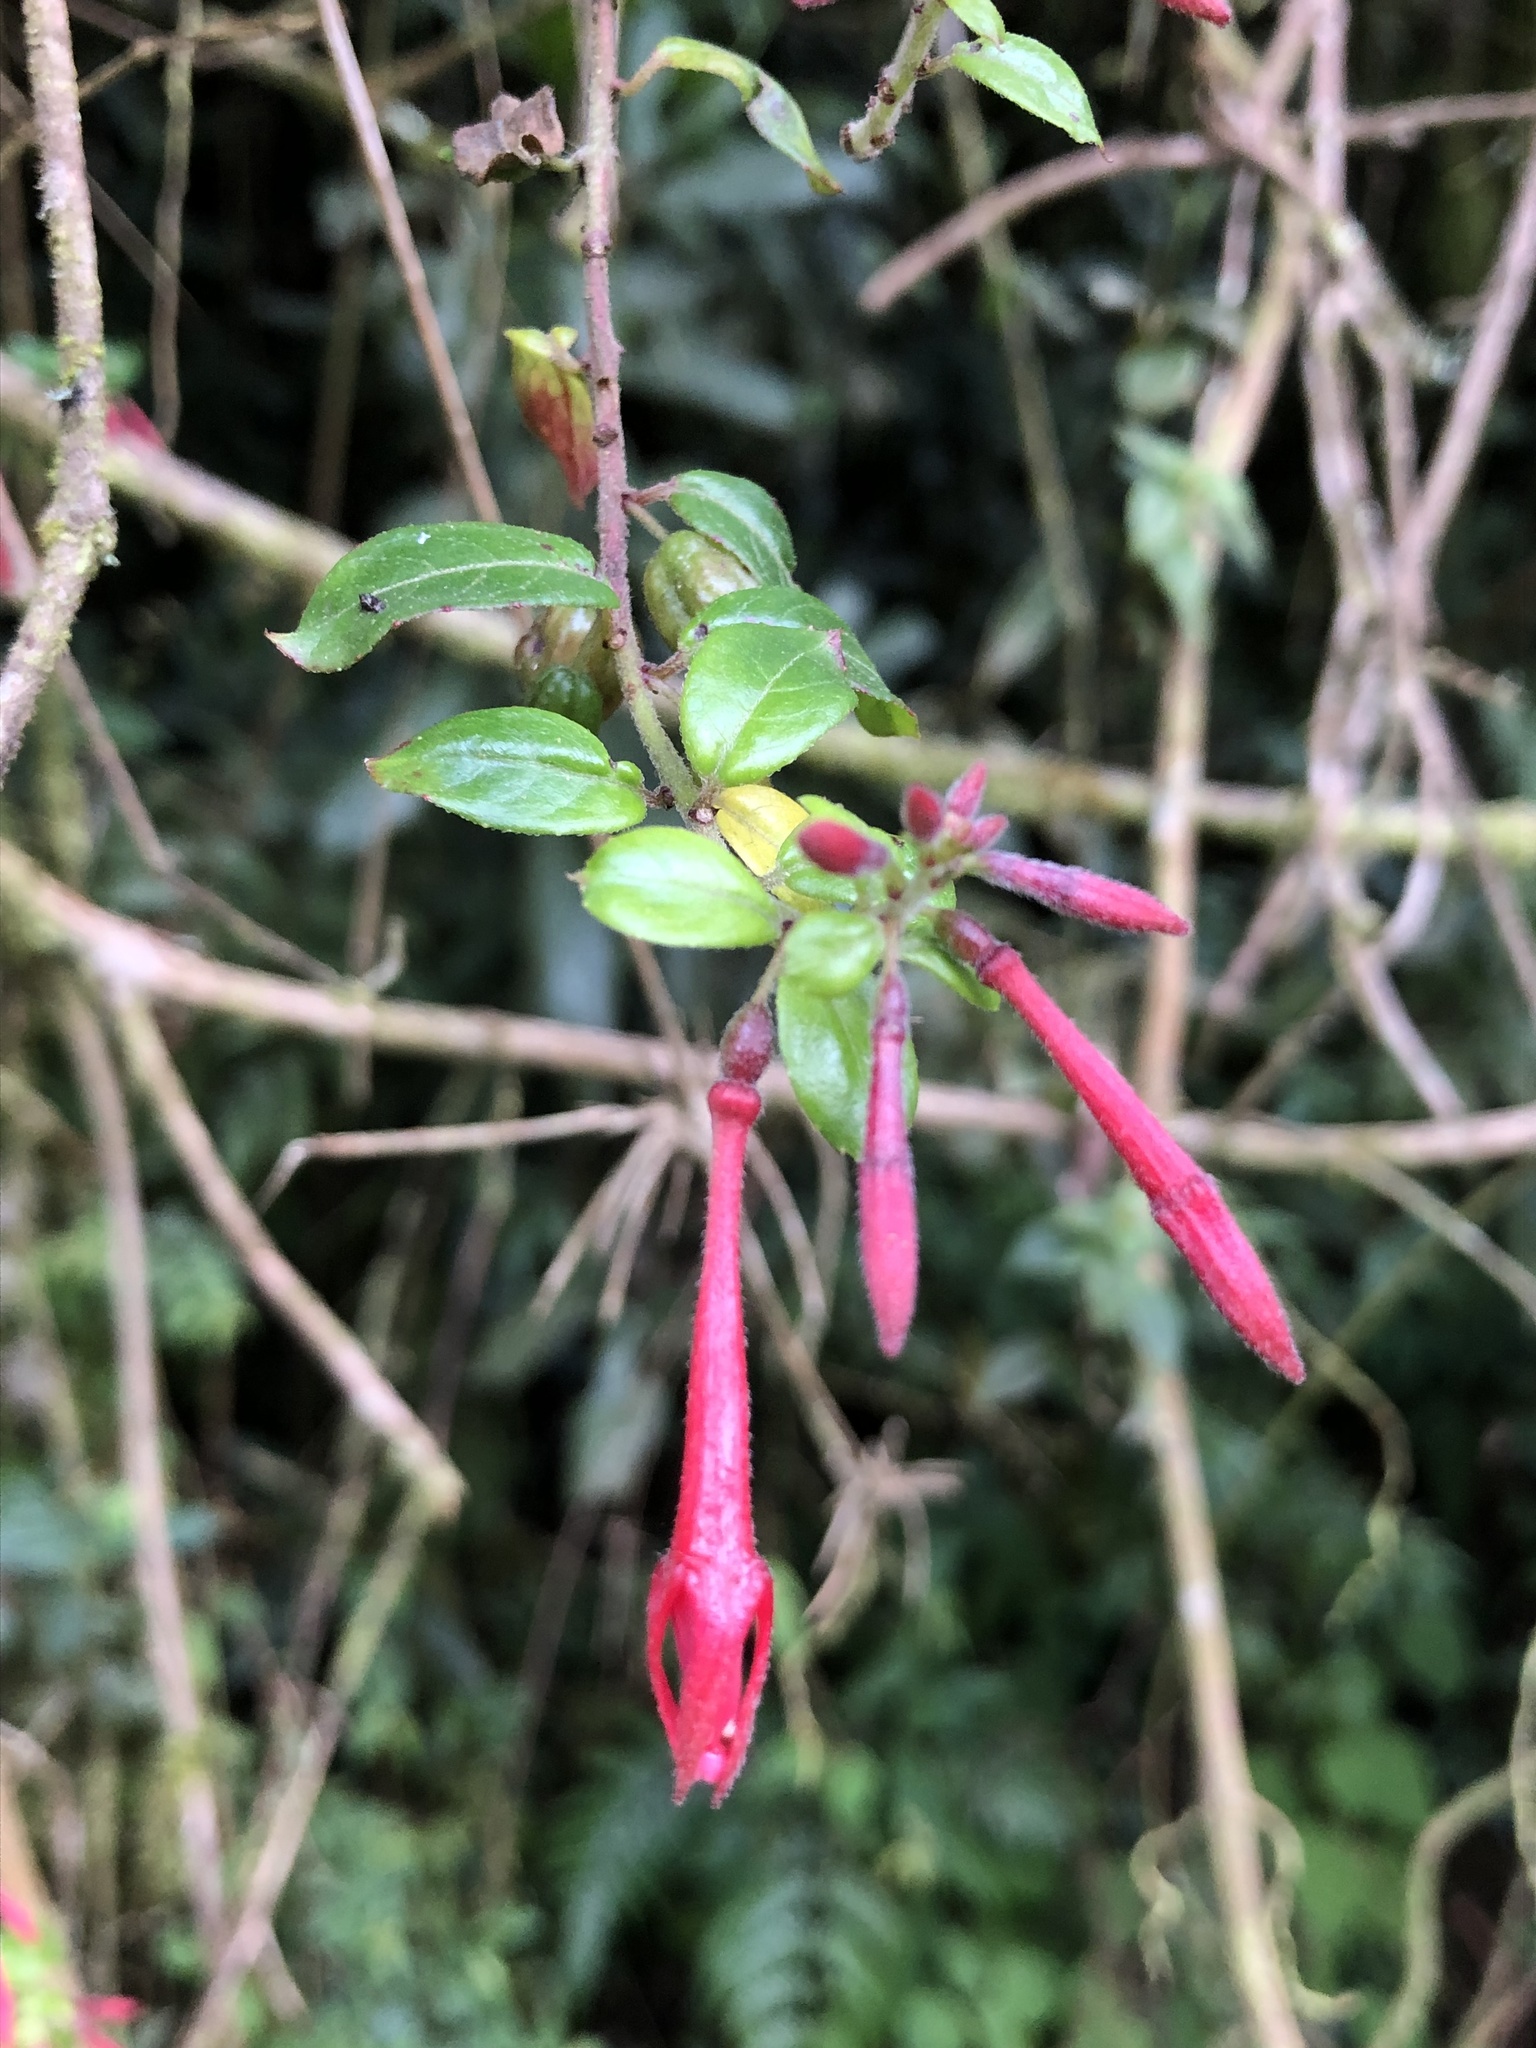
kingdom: Plantae
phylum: Tracheophyta
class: Magnoliopsida
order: Myrtales
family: Onagraceae
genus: Fuchsia
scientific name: Fuchsia crassistipula
